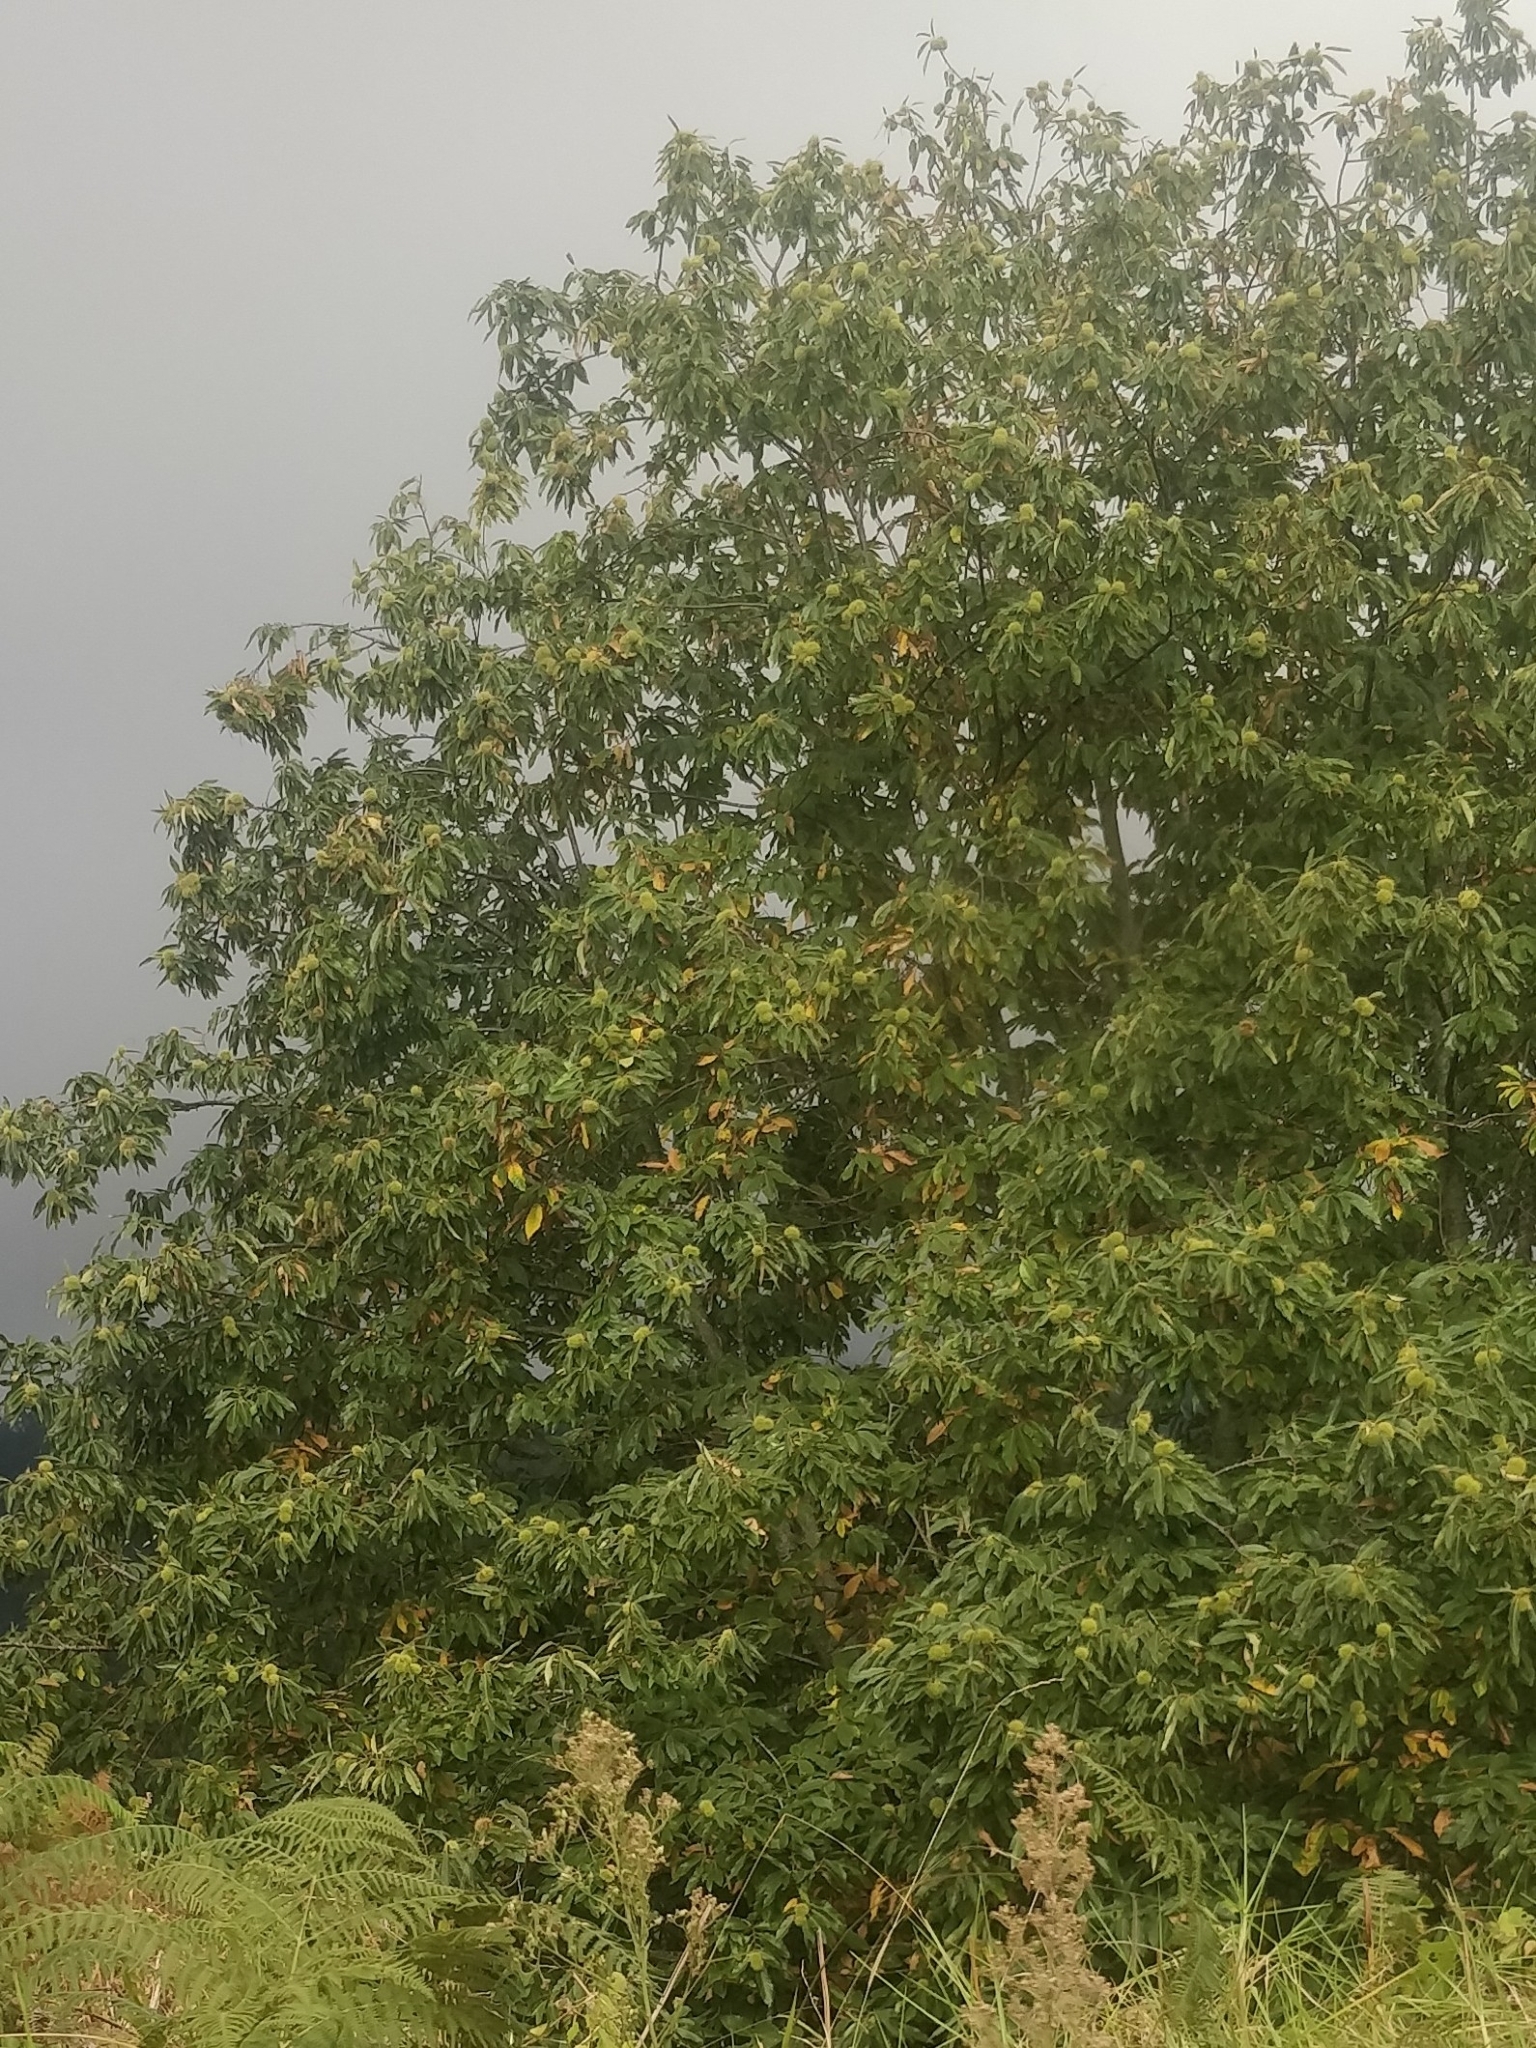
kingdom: Plantae
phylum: Tracheophyta
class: Magnoliopsida
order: Fagales
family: Fagaceae
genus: Castanea
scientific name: Castanea sativa
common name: Sweet chestnut
